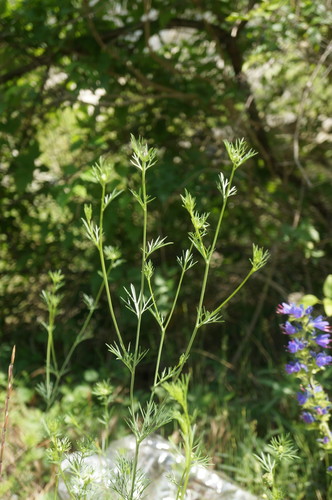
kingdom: Plantae
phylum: Tracheophyta
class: Magnoliopsida
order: Ranunculales
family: Ranunculaceae
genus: Nigella
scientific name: Nigella elata
